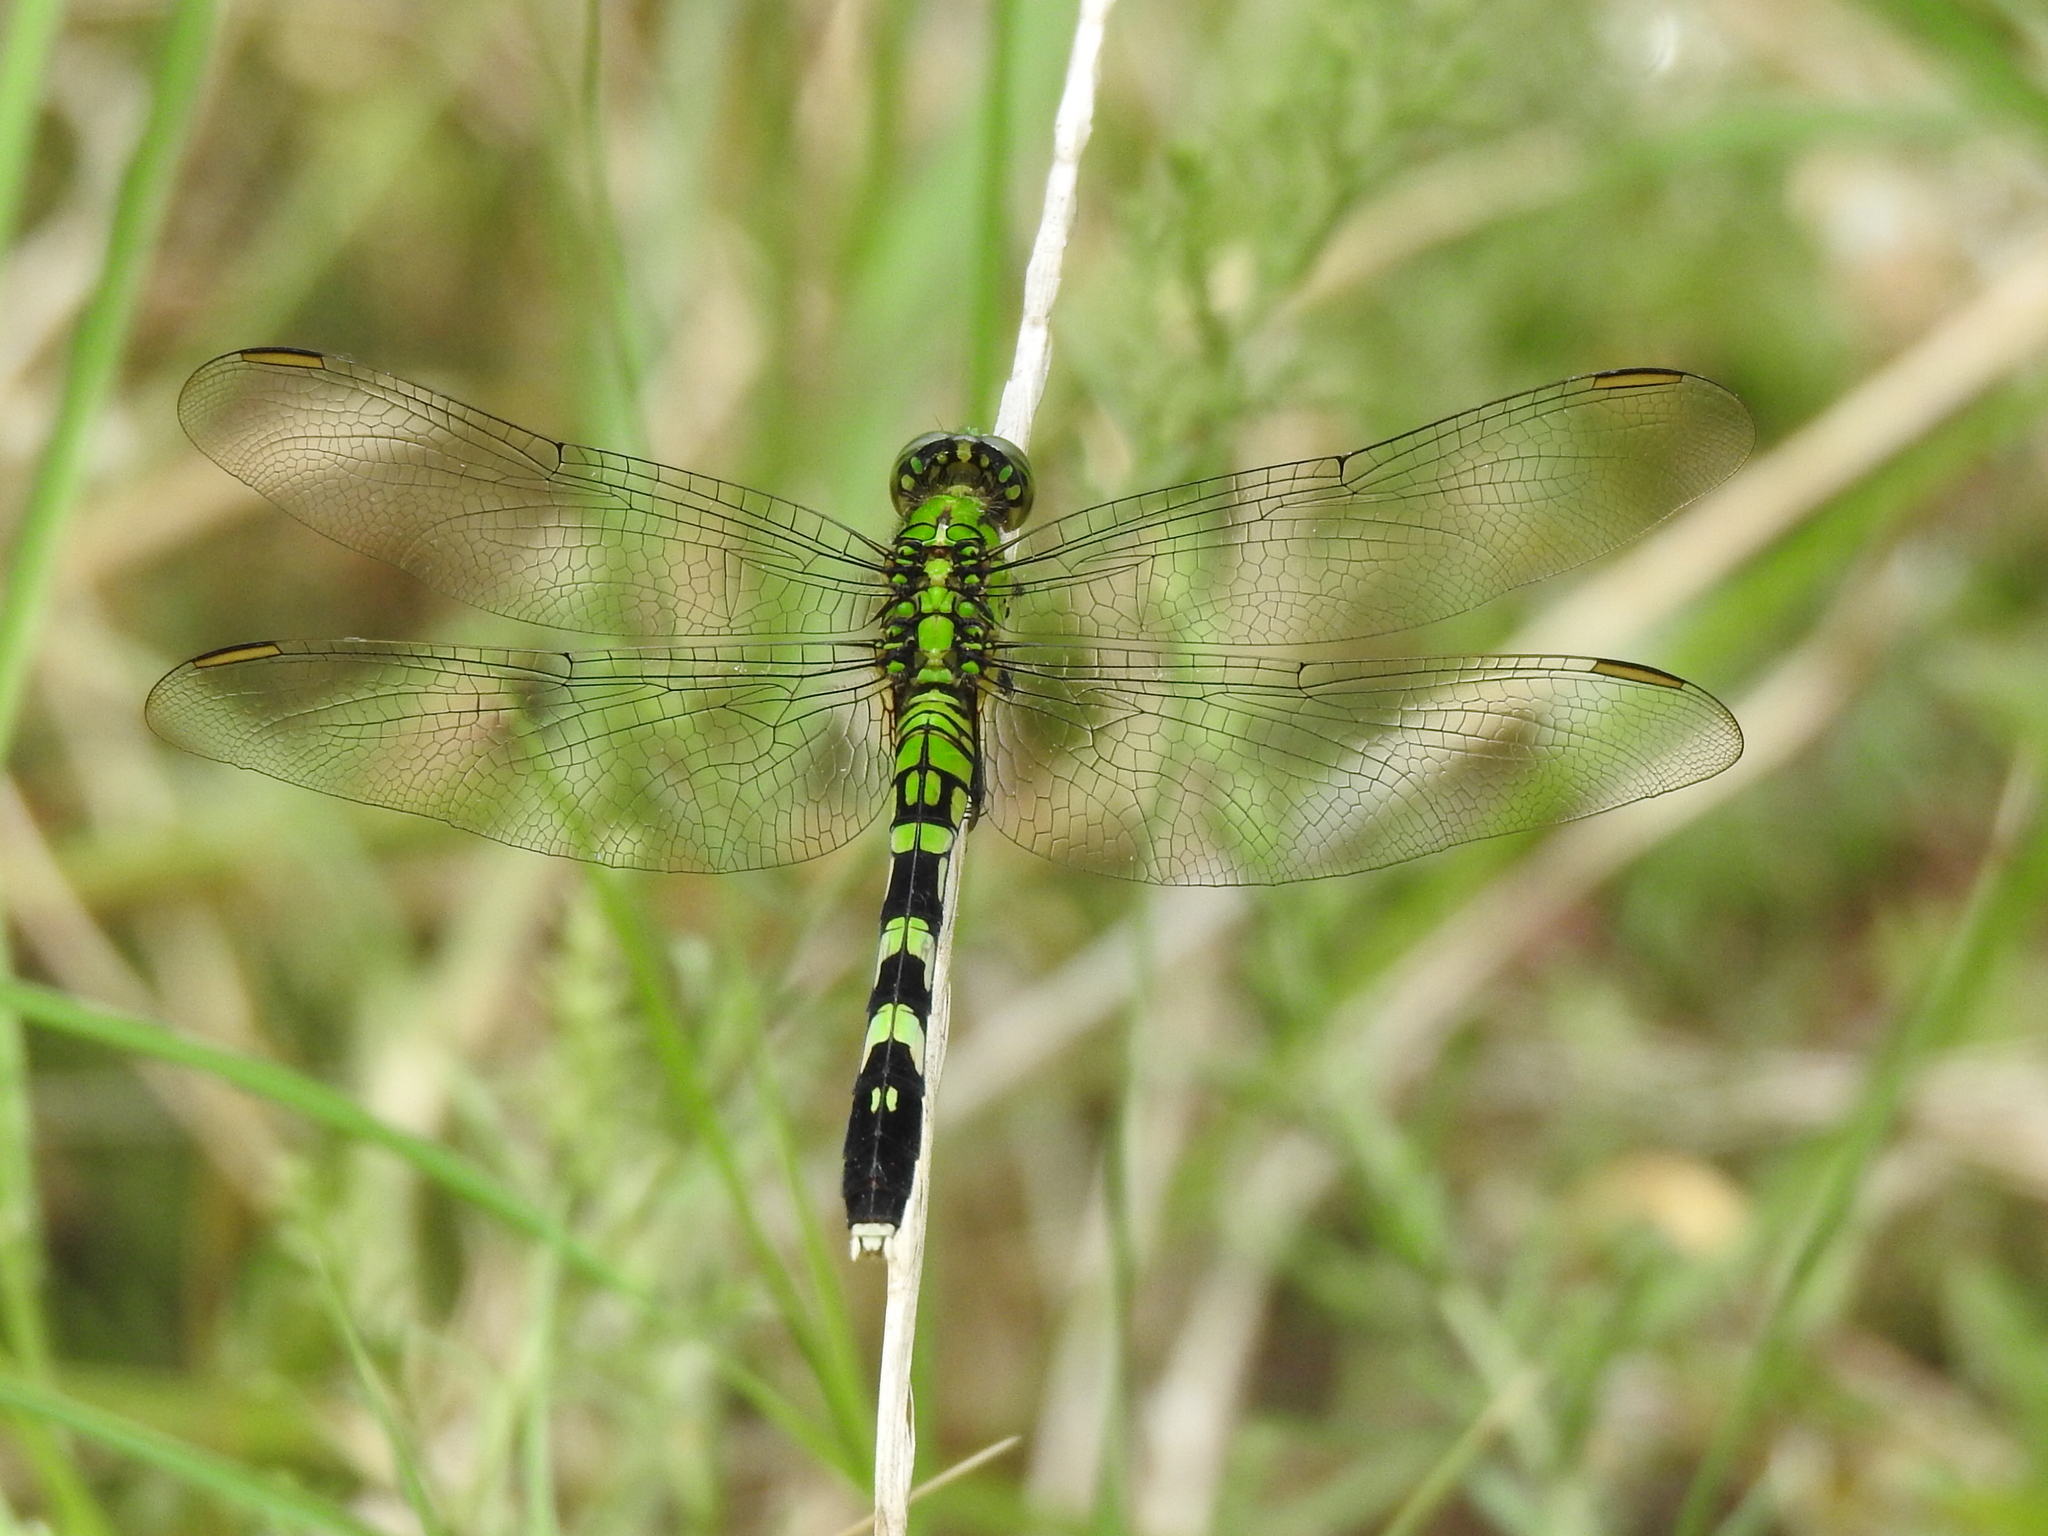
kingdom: Animalia
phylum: Arthropoda
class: Insecta
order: Odonata
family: Libellulidae
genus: Erythemis
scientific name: Erythemis simplicicollis
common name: Eastern pondhawk
